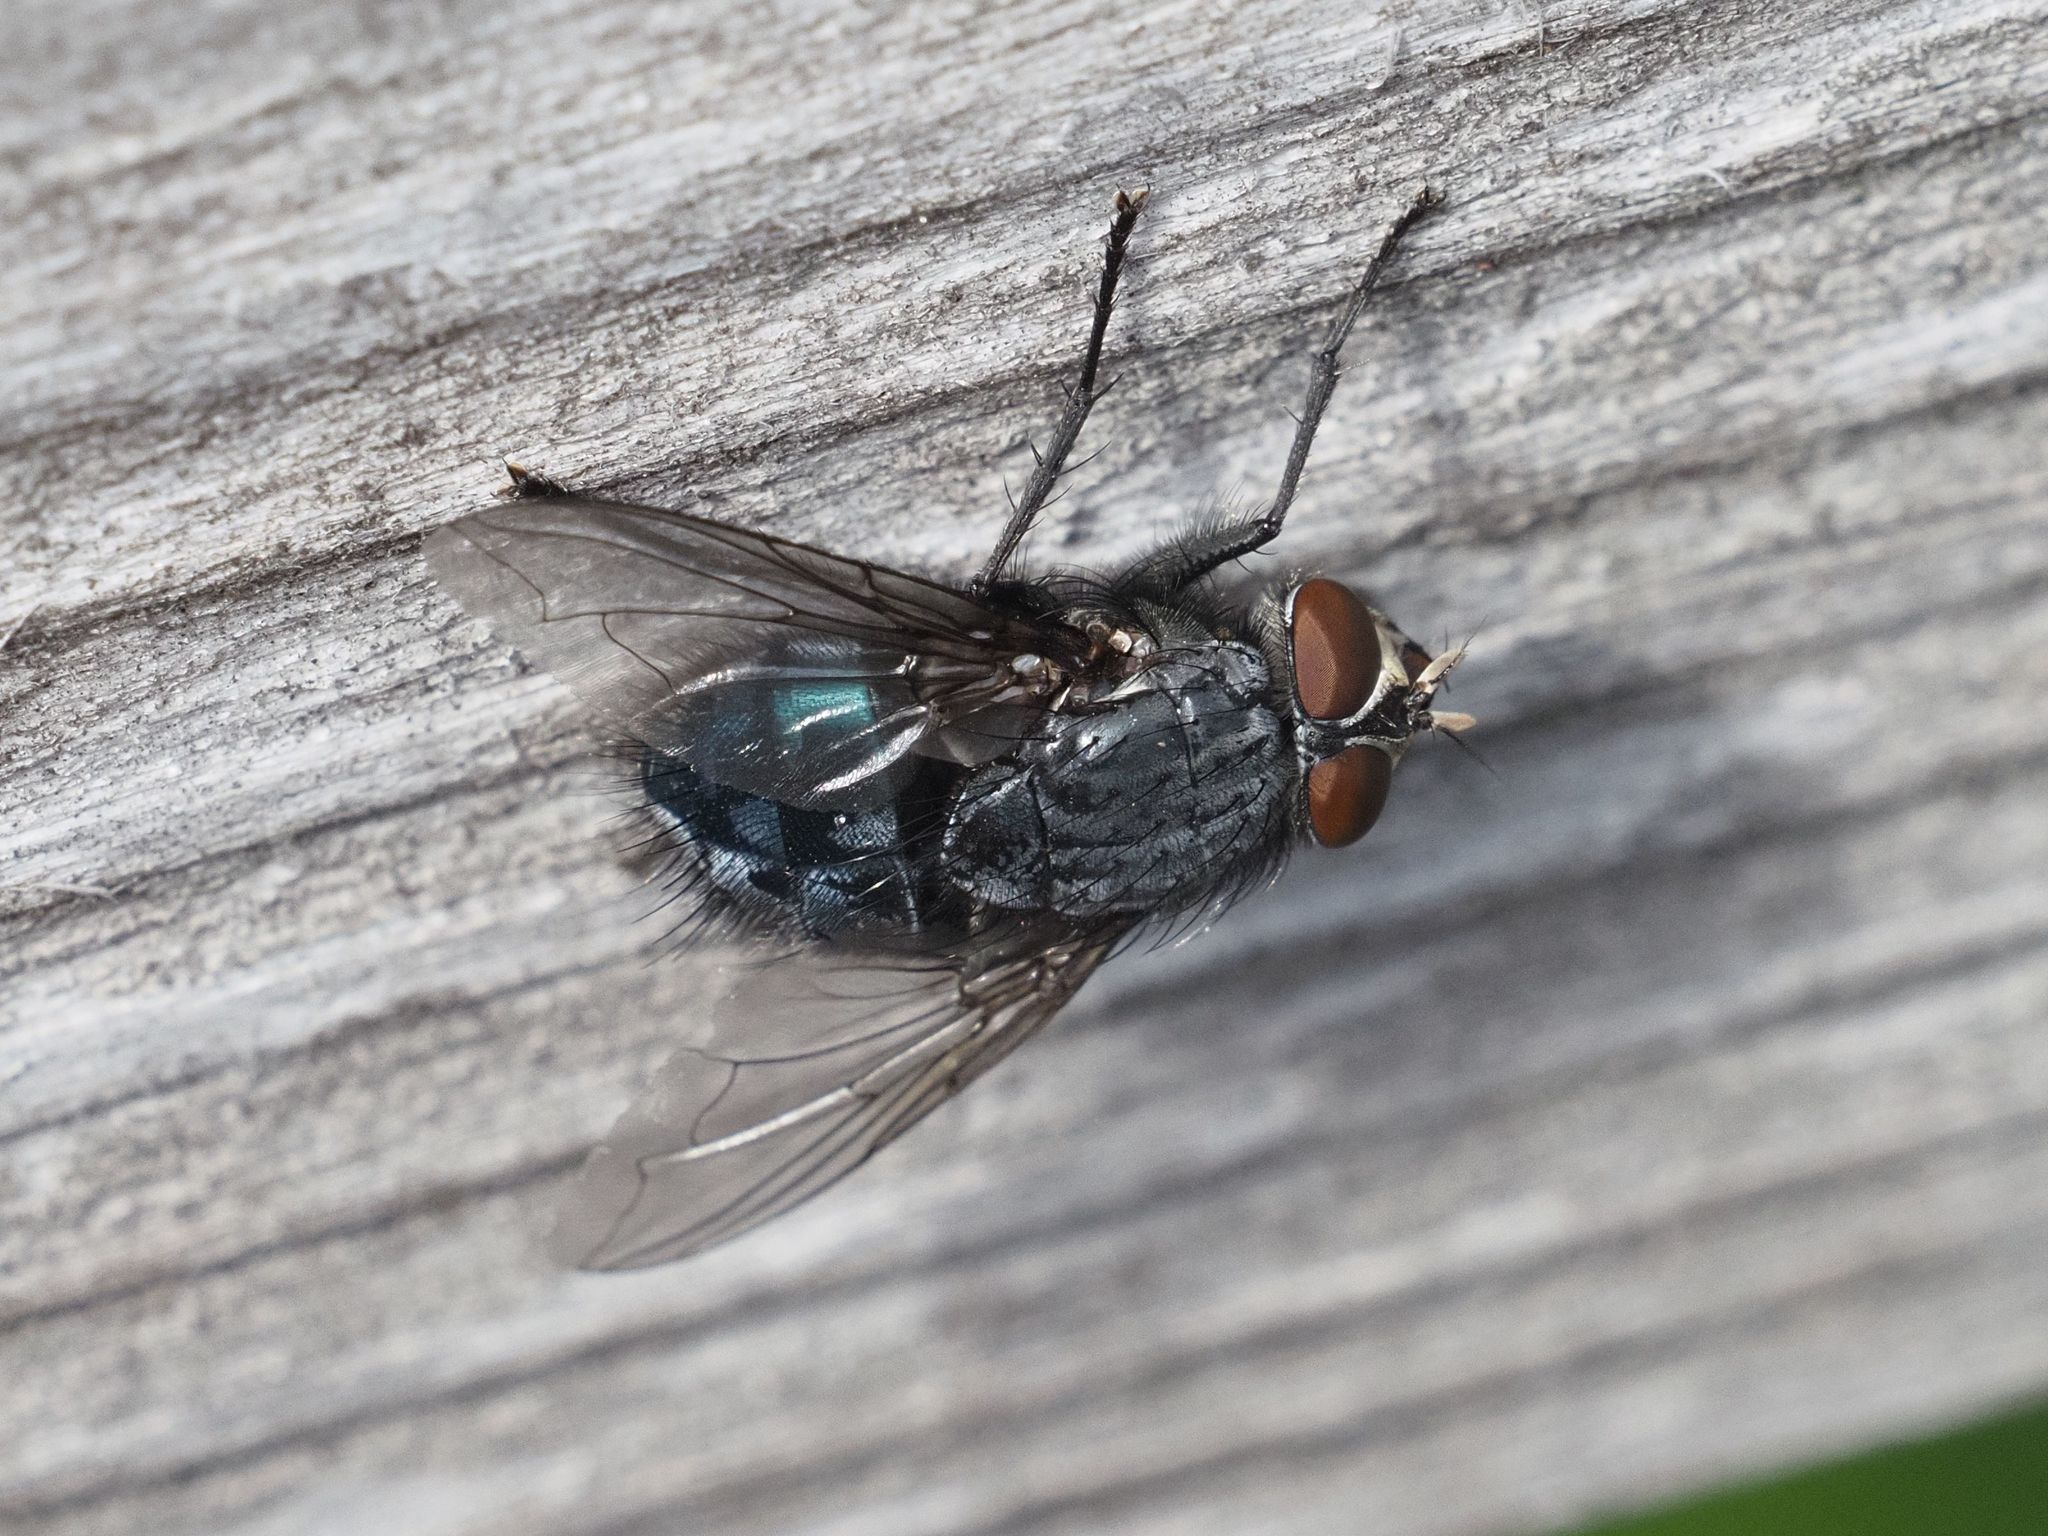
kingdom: Animalia
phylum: Arthropoda
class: Insecta
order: Diptera
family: Calliphoridae
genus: Calliphora
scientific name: Calliphora vicina
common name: Common blow flie
